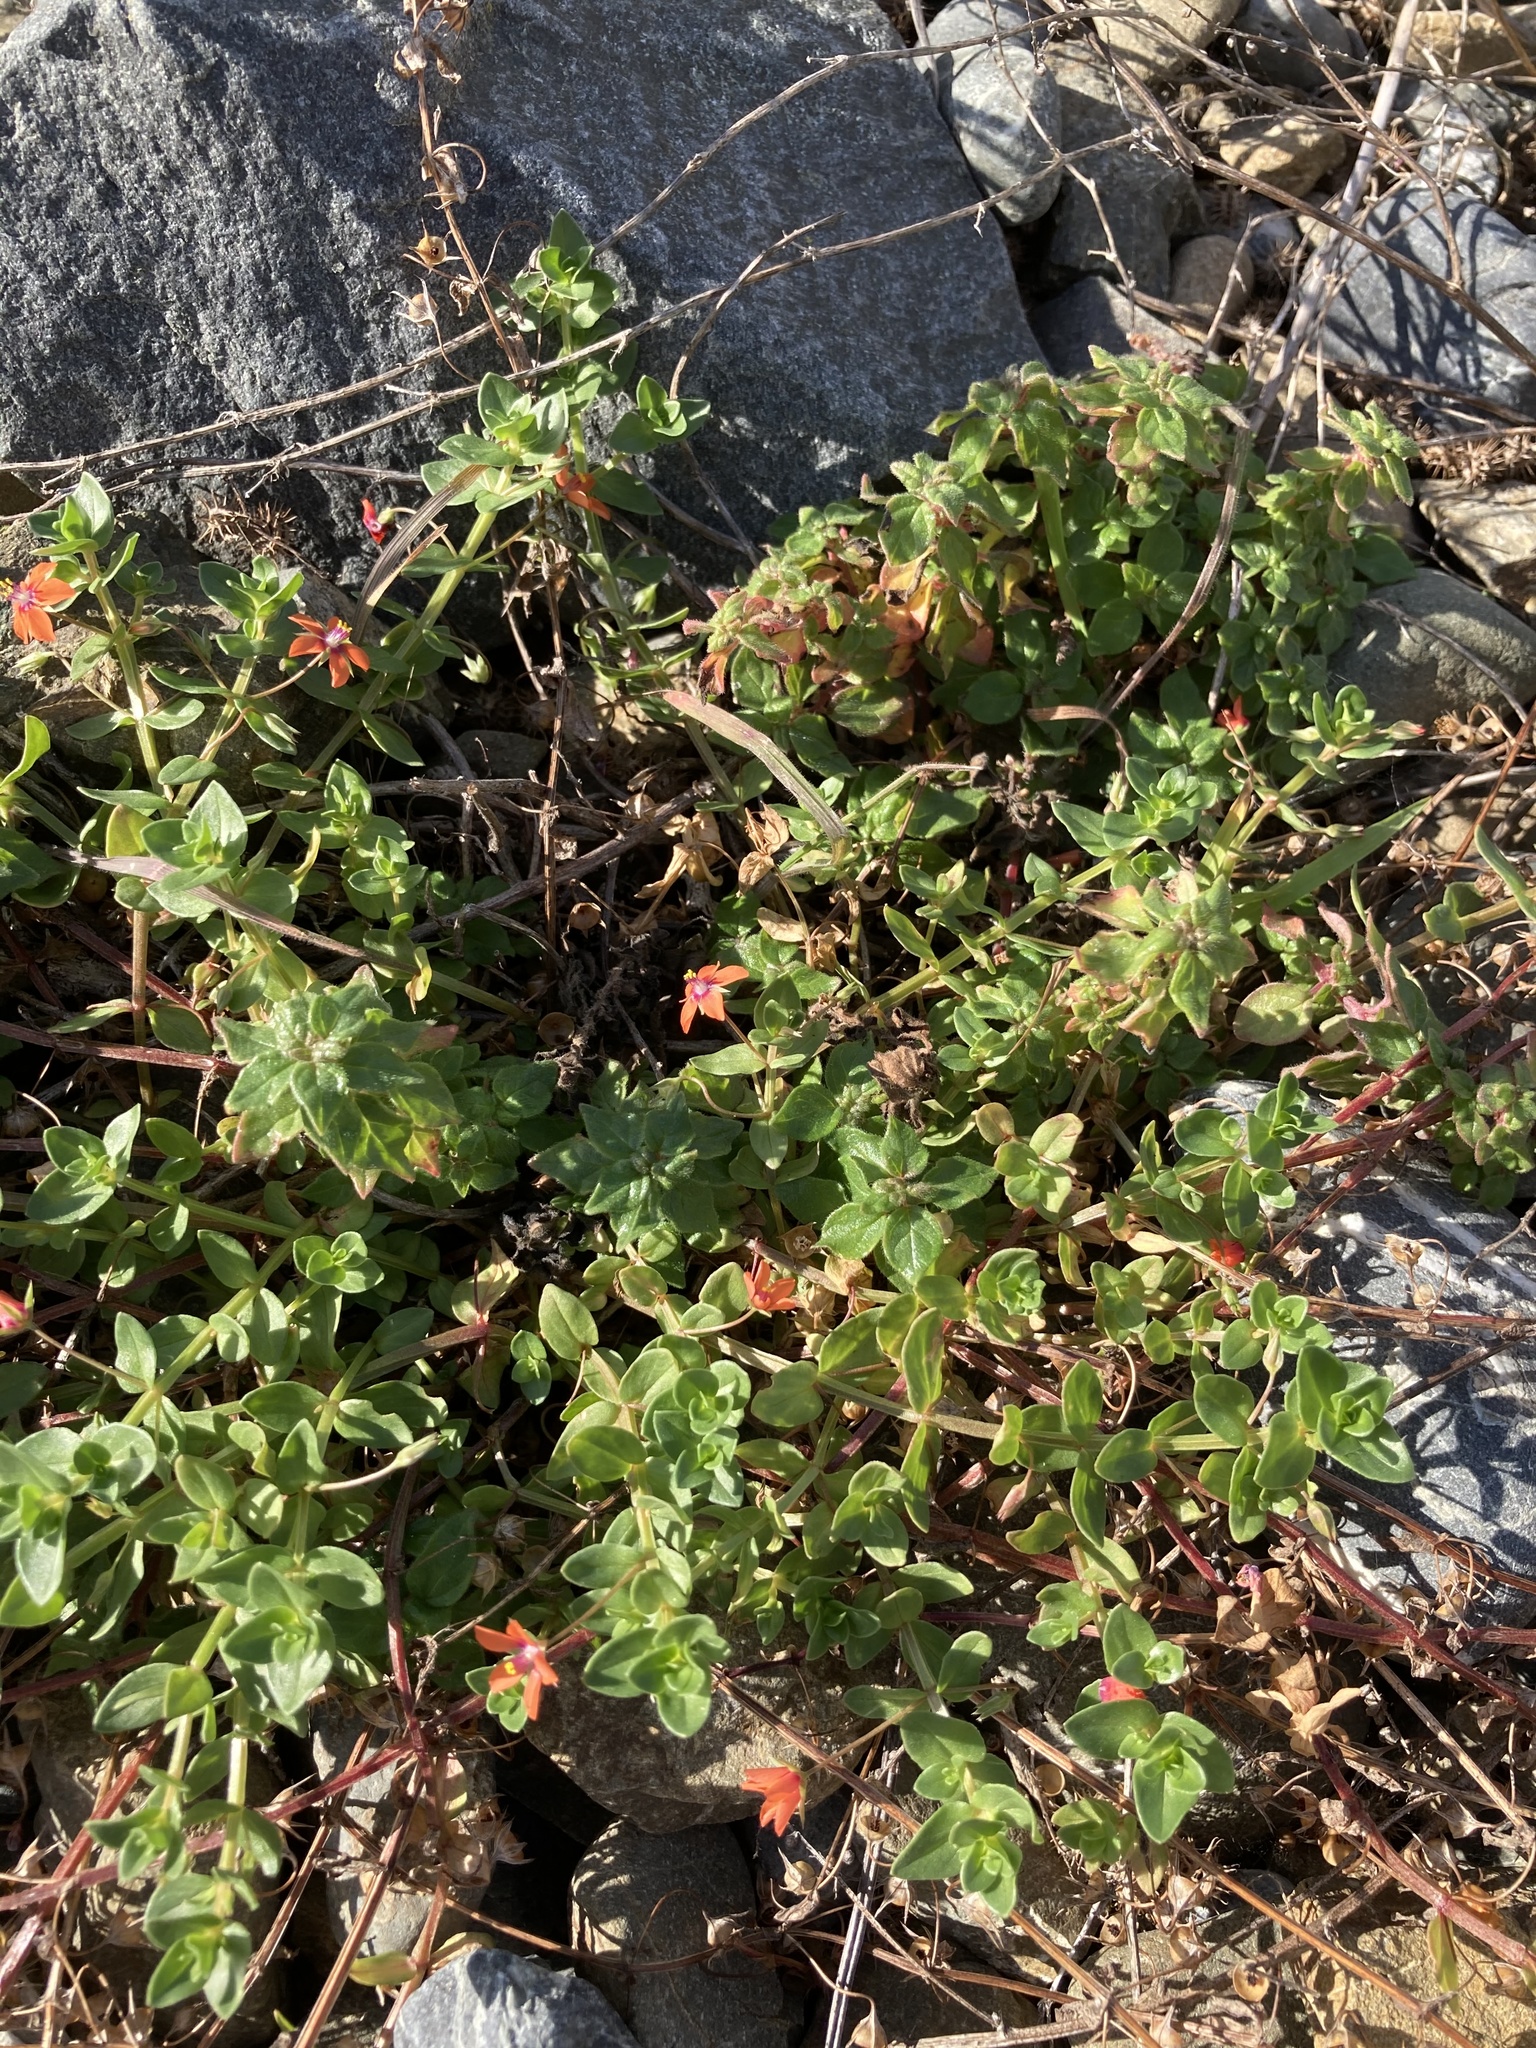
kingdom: Plantae
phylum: Tracheophyta
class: Magnoliopsida
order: Ericales
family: Primulaceae
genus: Lysimachia
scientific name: Lysimachia arvensis
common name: Scarlet pimpernel
